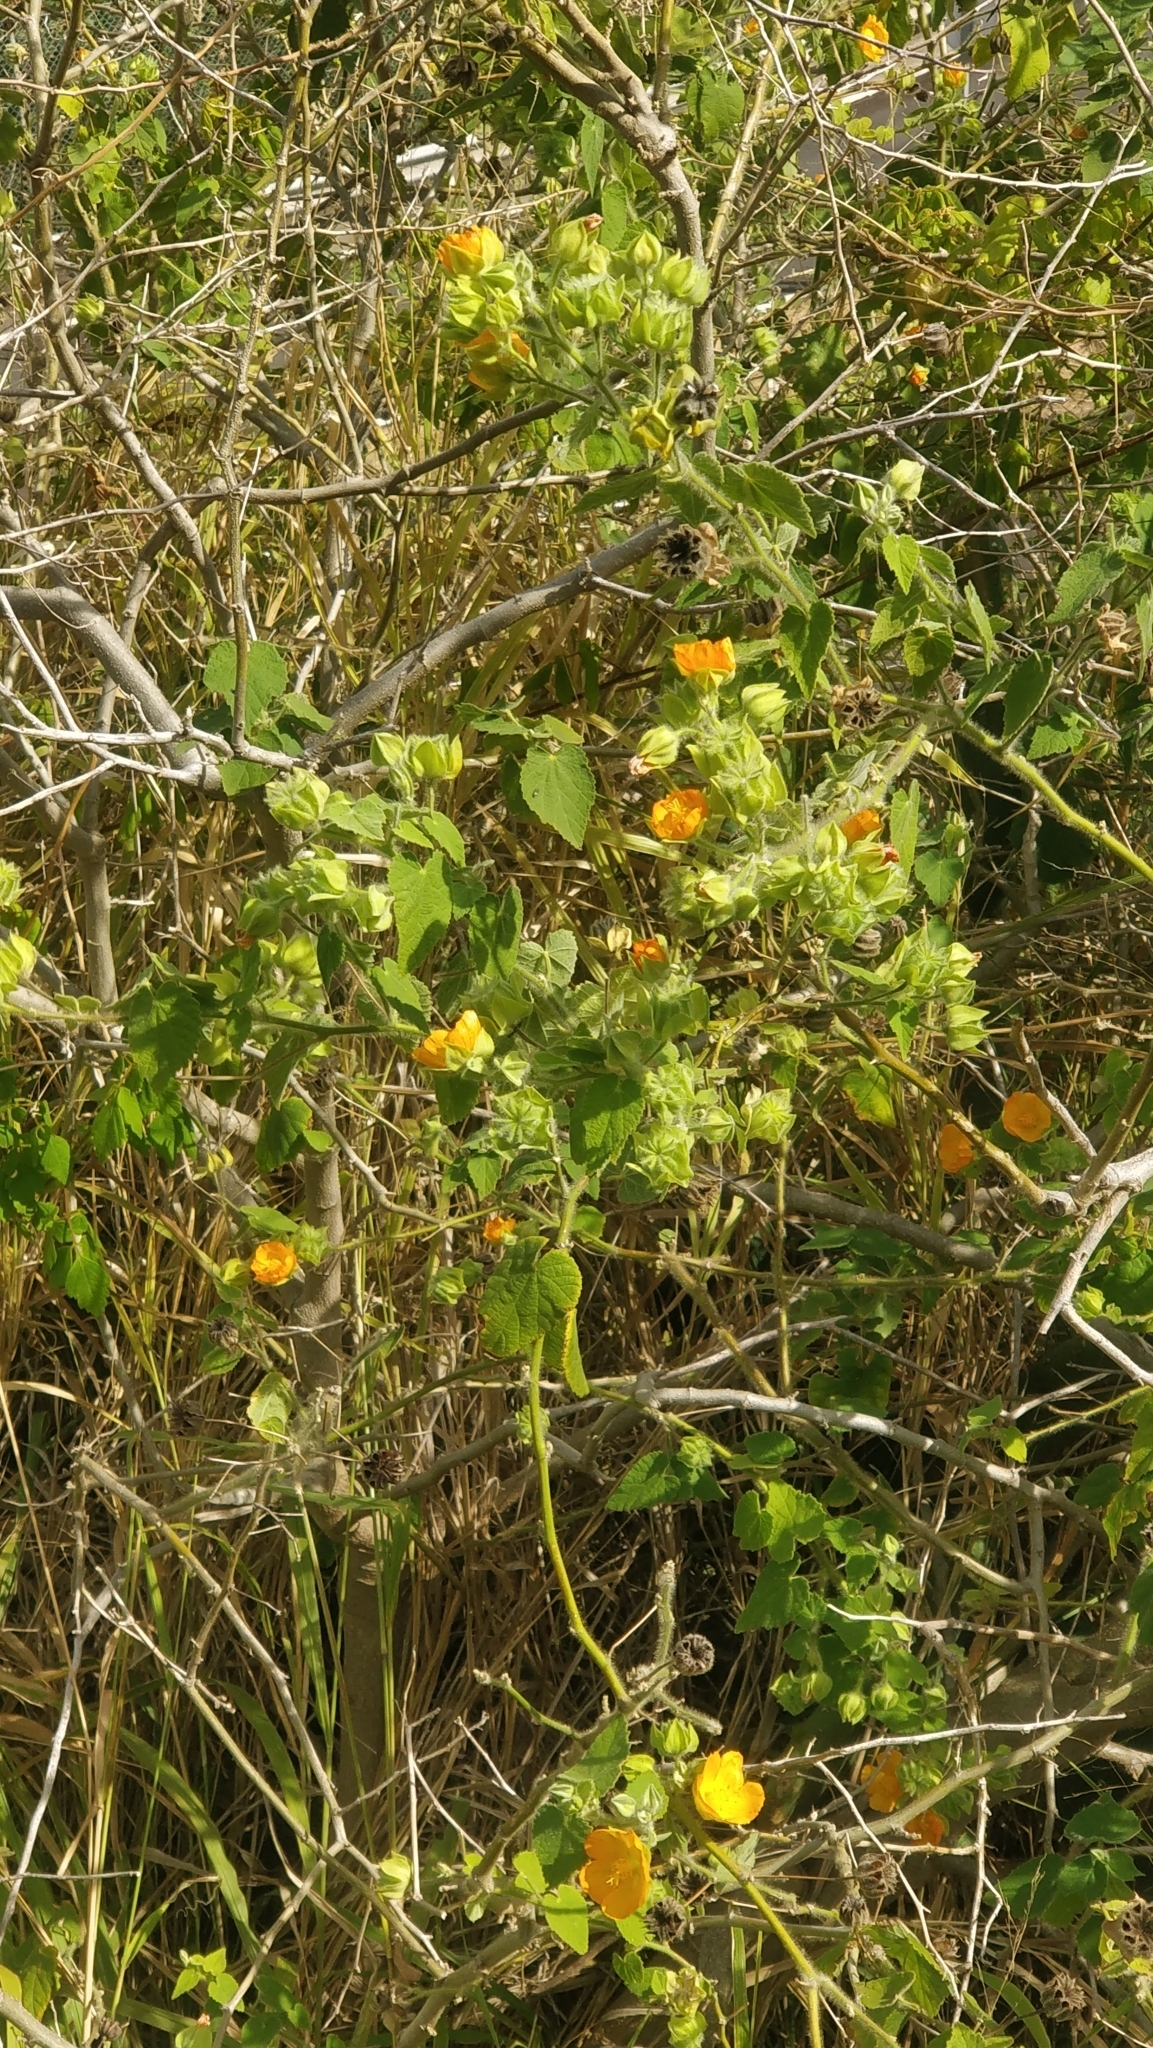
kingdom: Plantae
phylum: Tracheophyta
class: Magnoliopsida
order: Malvales
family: Malvaceae
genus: Abutilon
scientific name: Abutilon grandifolium
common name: Hairy abutilon
